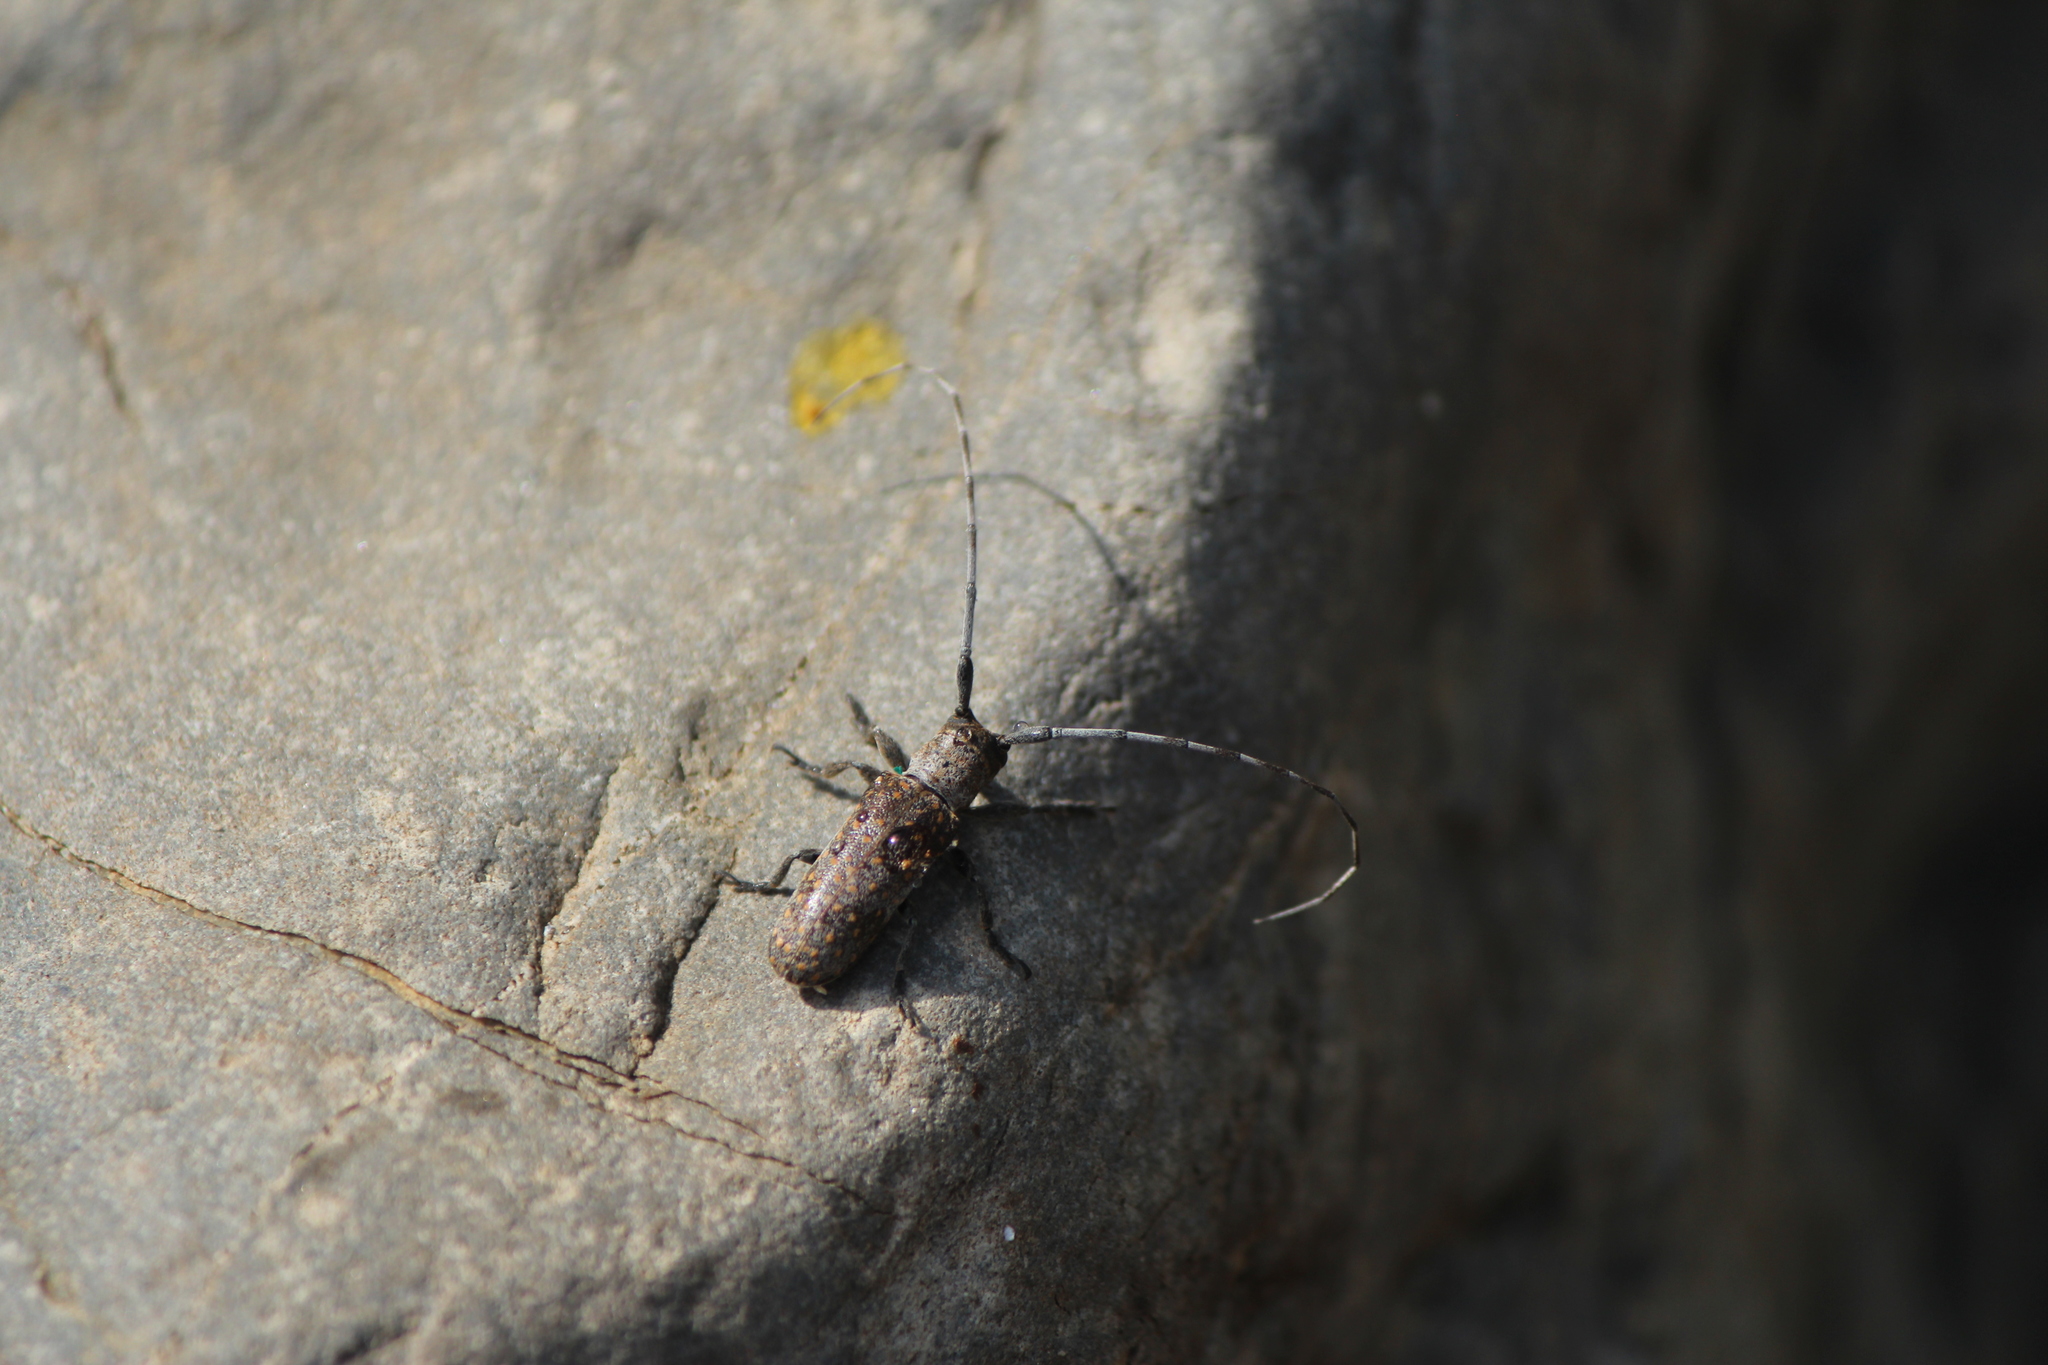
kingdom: Animalia
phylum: Arthropoda
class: Insecta
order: Coleoptera
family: Cerambycidae
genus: Oncideres
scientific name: Oncideres dorsomaculata
